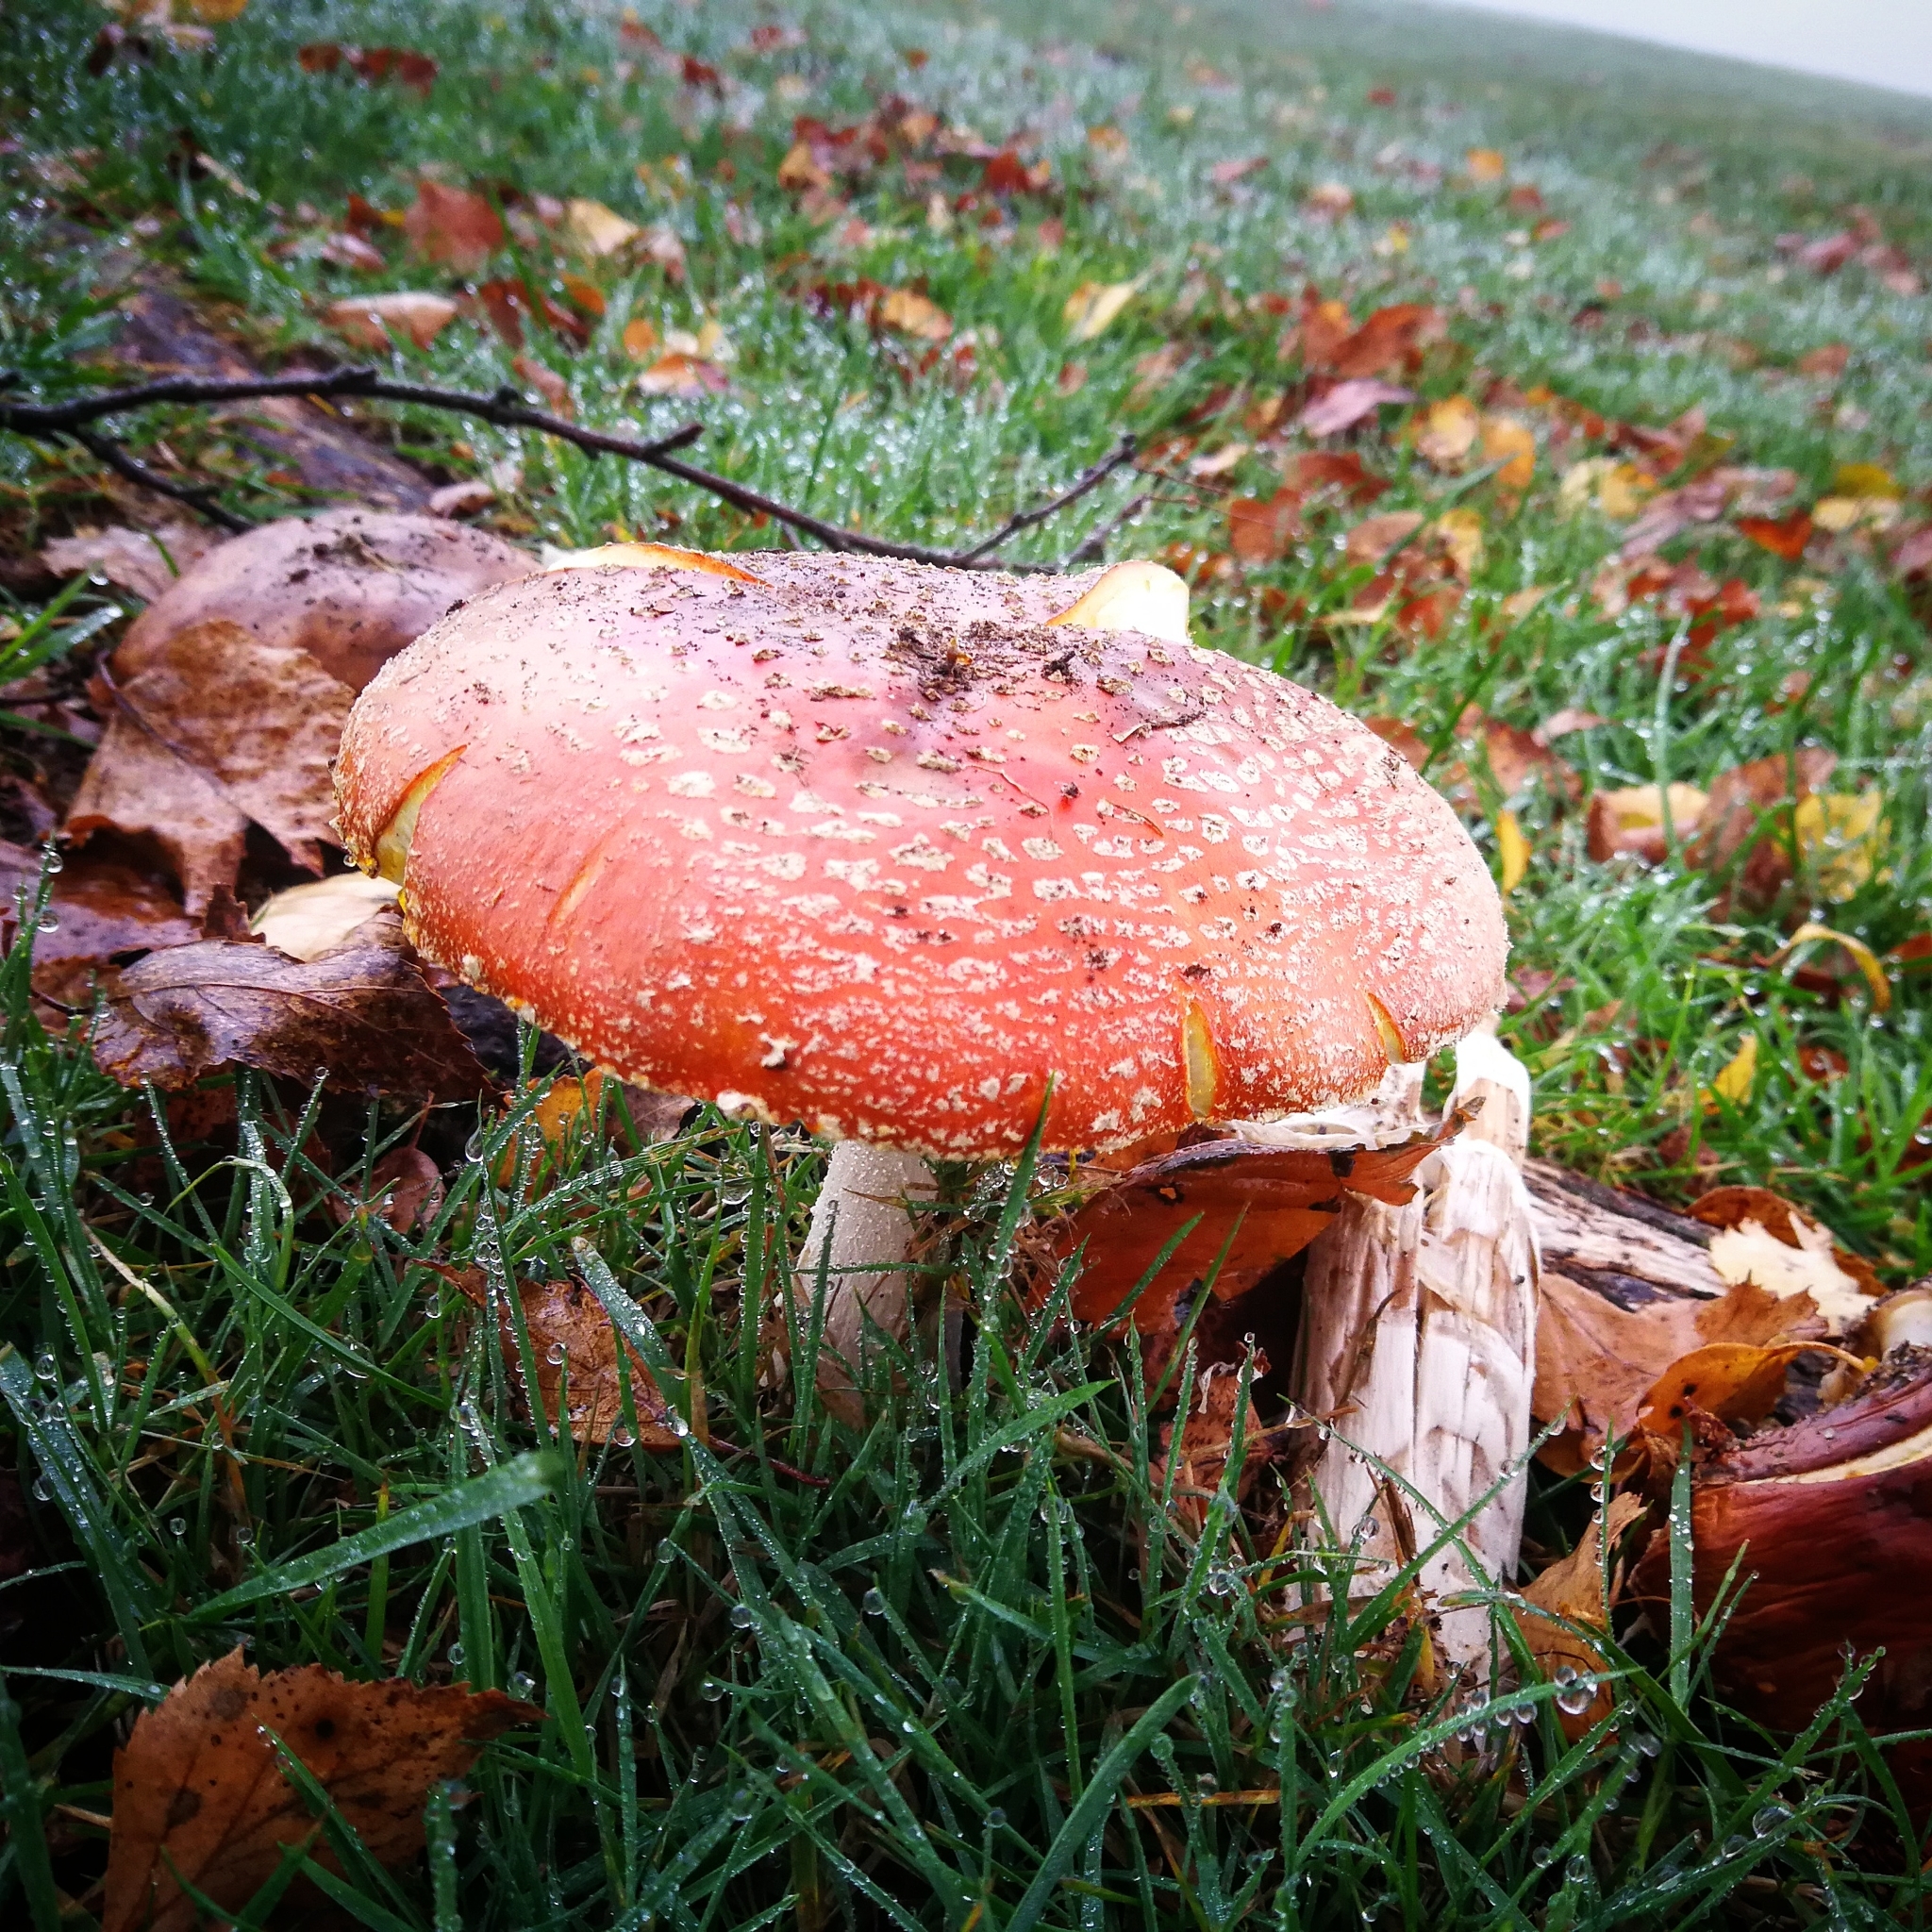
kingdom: Fungi
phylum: Basidiomycota
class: Agaricomycetes
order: Agaricales
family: Amanitaceae
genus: Amanita
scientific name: Amanita muscaria
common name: Fly agaric
